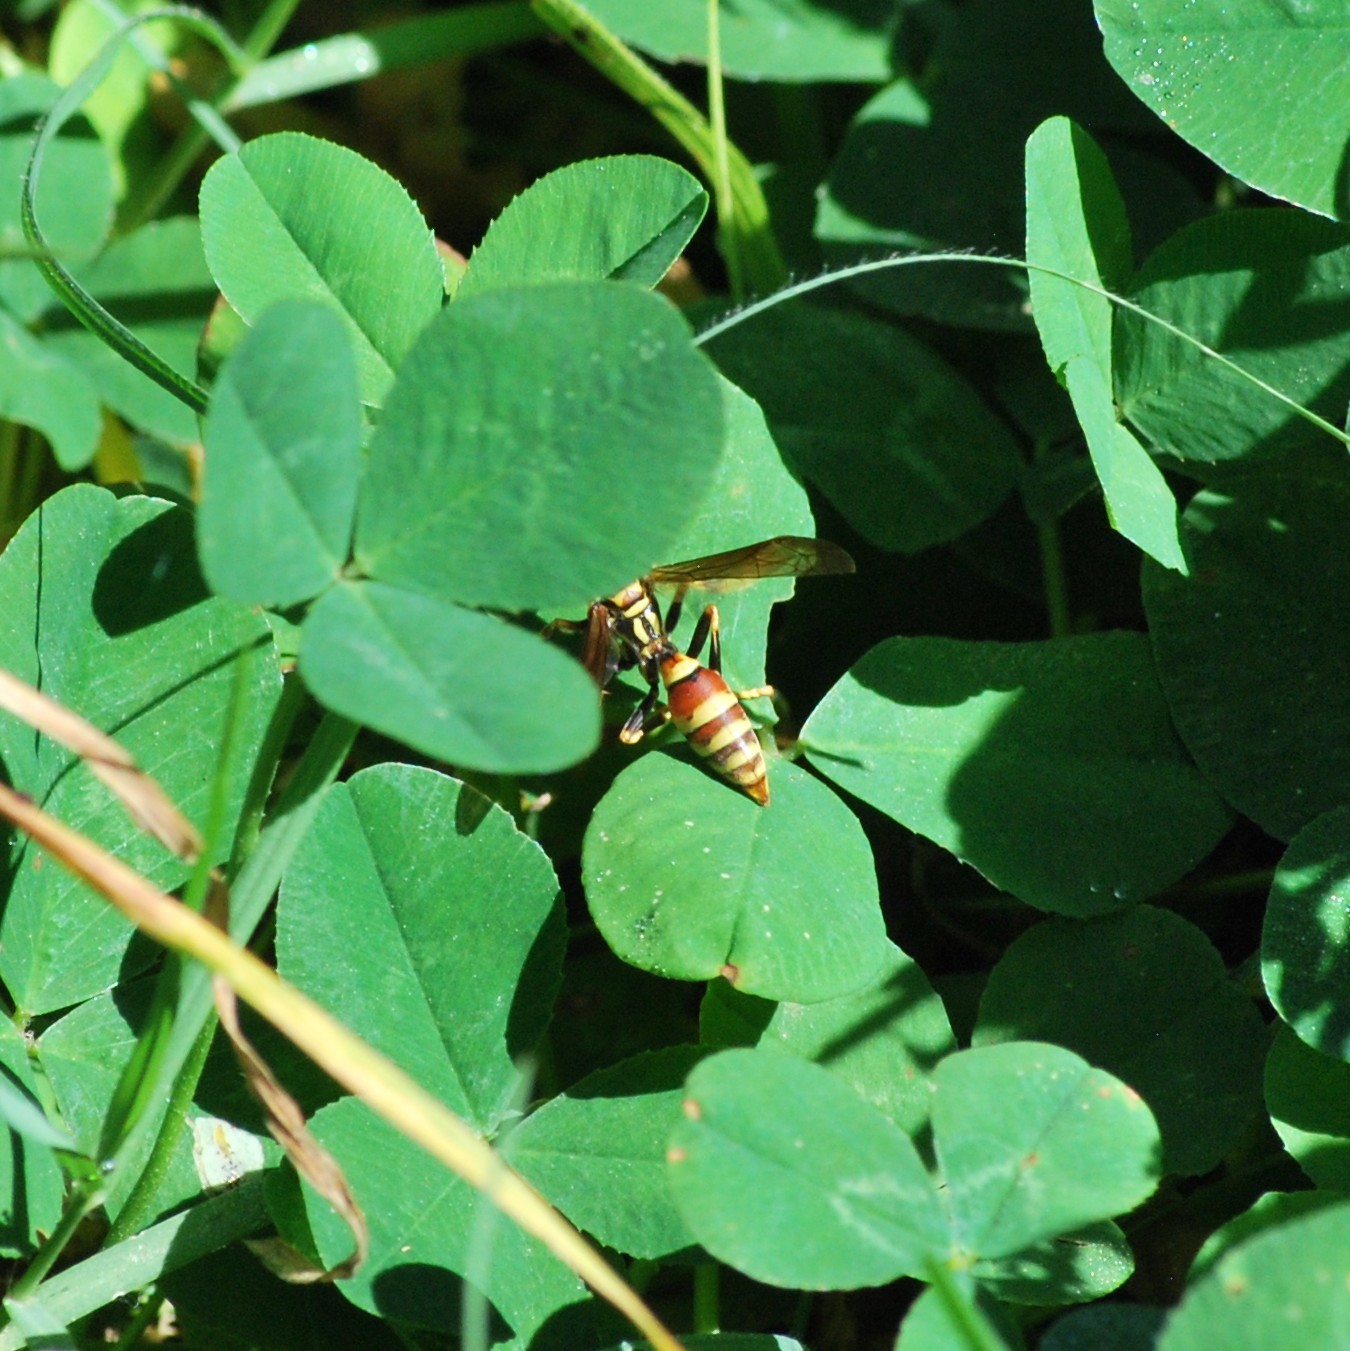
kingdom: Animalia
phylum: Arthropoda
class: Insecta
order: Hymenoptera
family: Eumenidae
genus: Polistes
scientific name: Polistes exclamans
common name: Paper wasp
